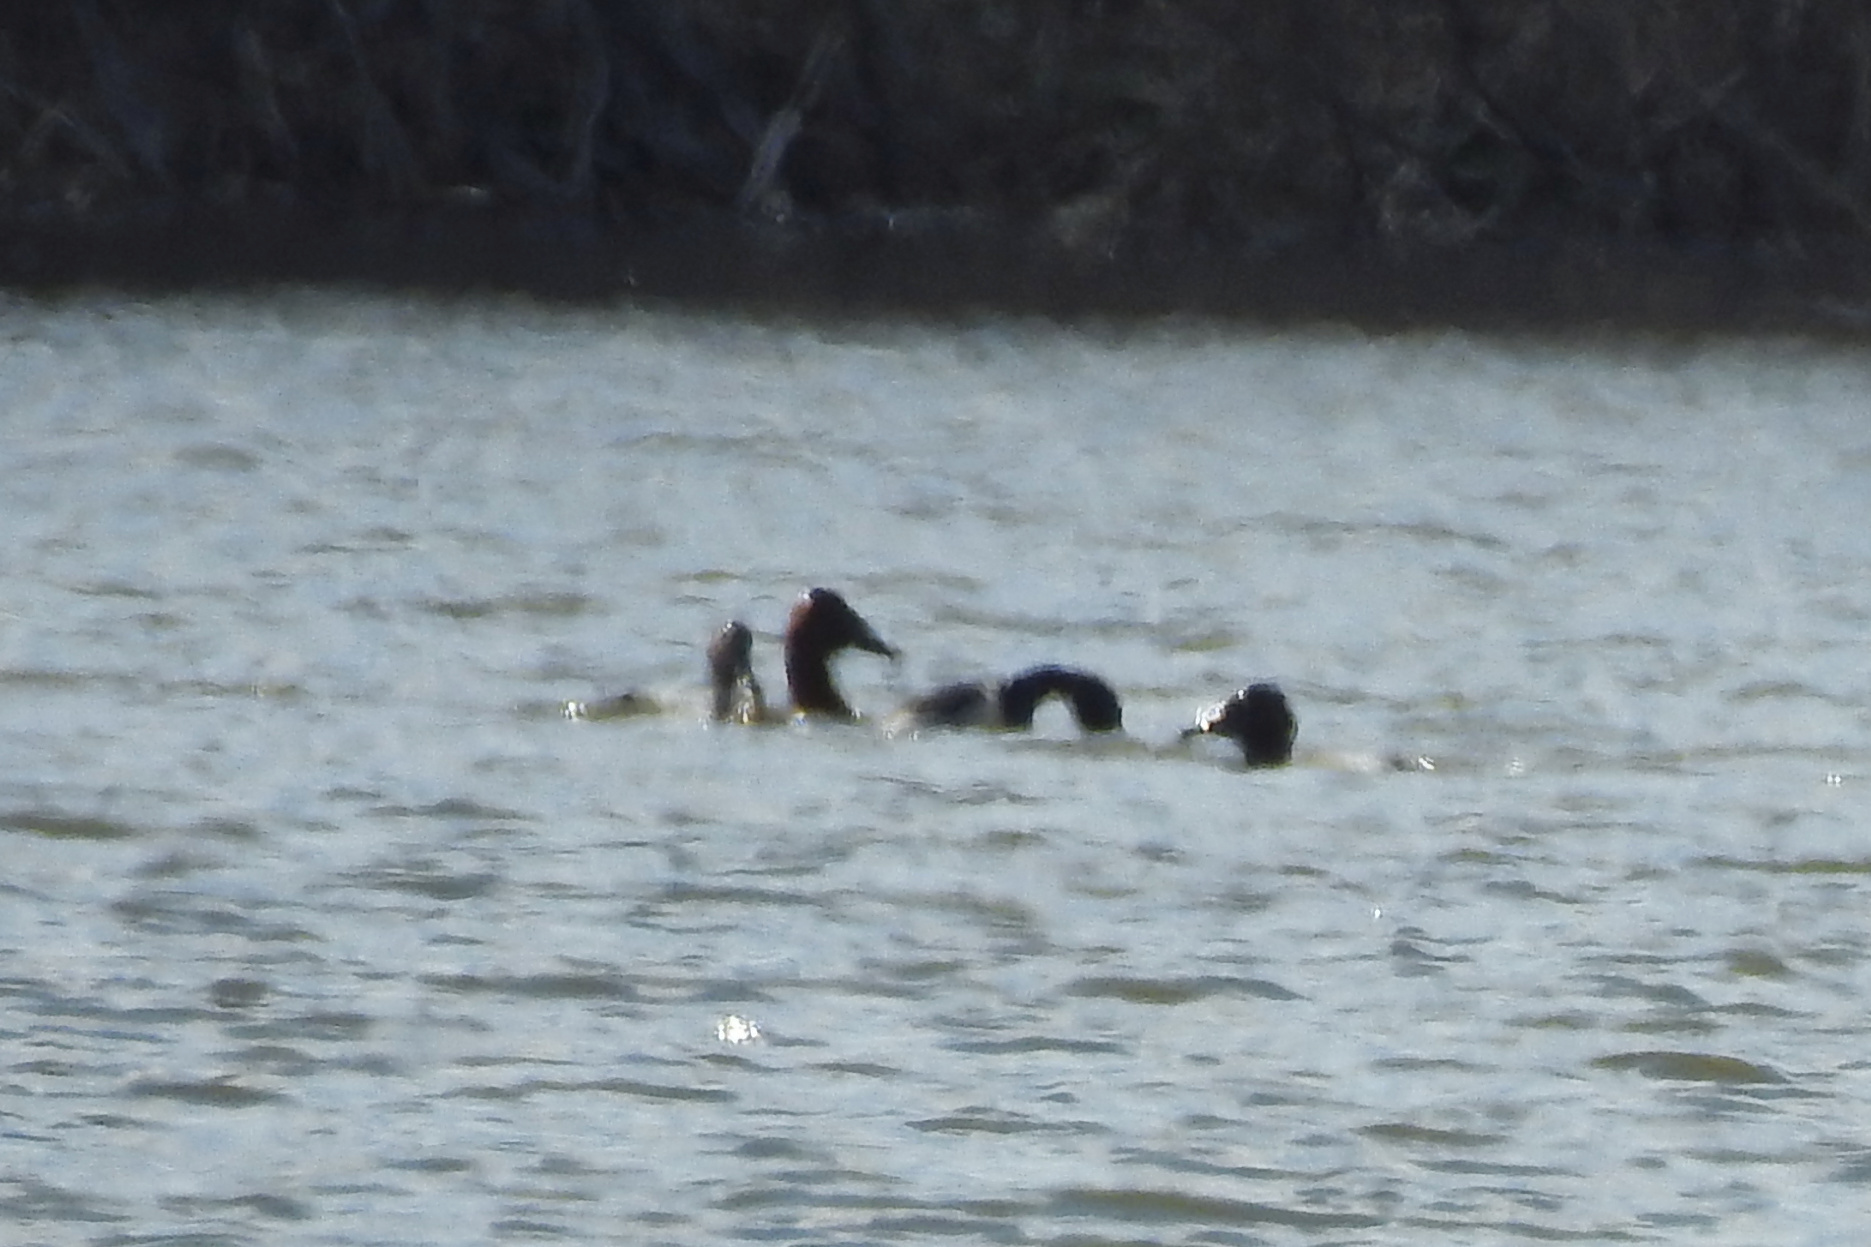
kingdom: Animalia
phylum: Chordata
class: Aves
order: Anseriformes
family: Anatidae
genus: Aythya
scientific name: Aythya valisineria
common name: Canvasback
